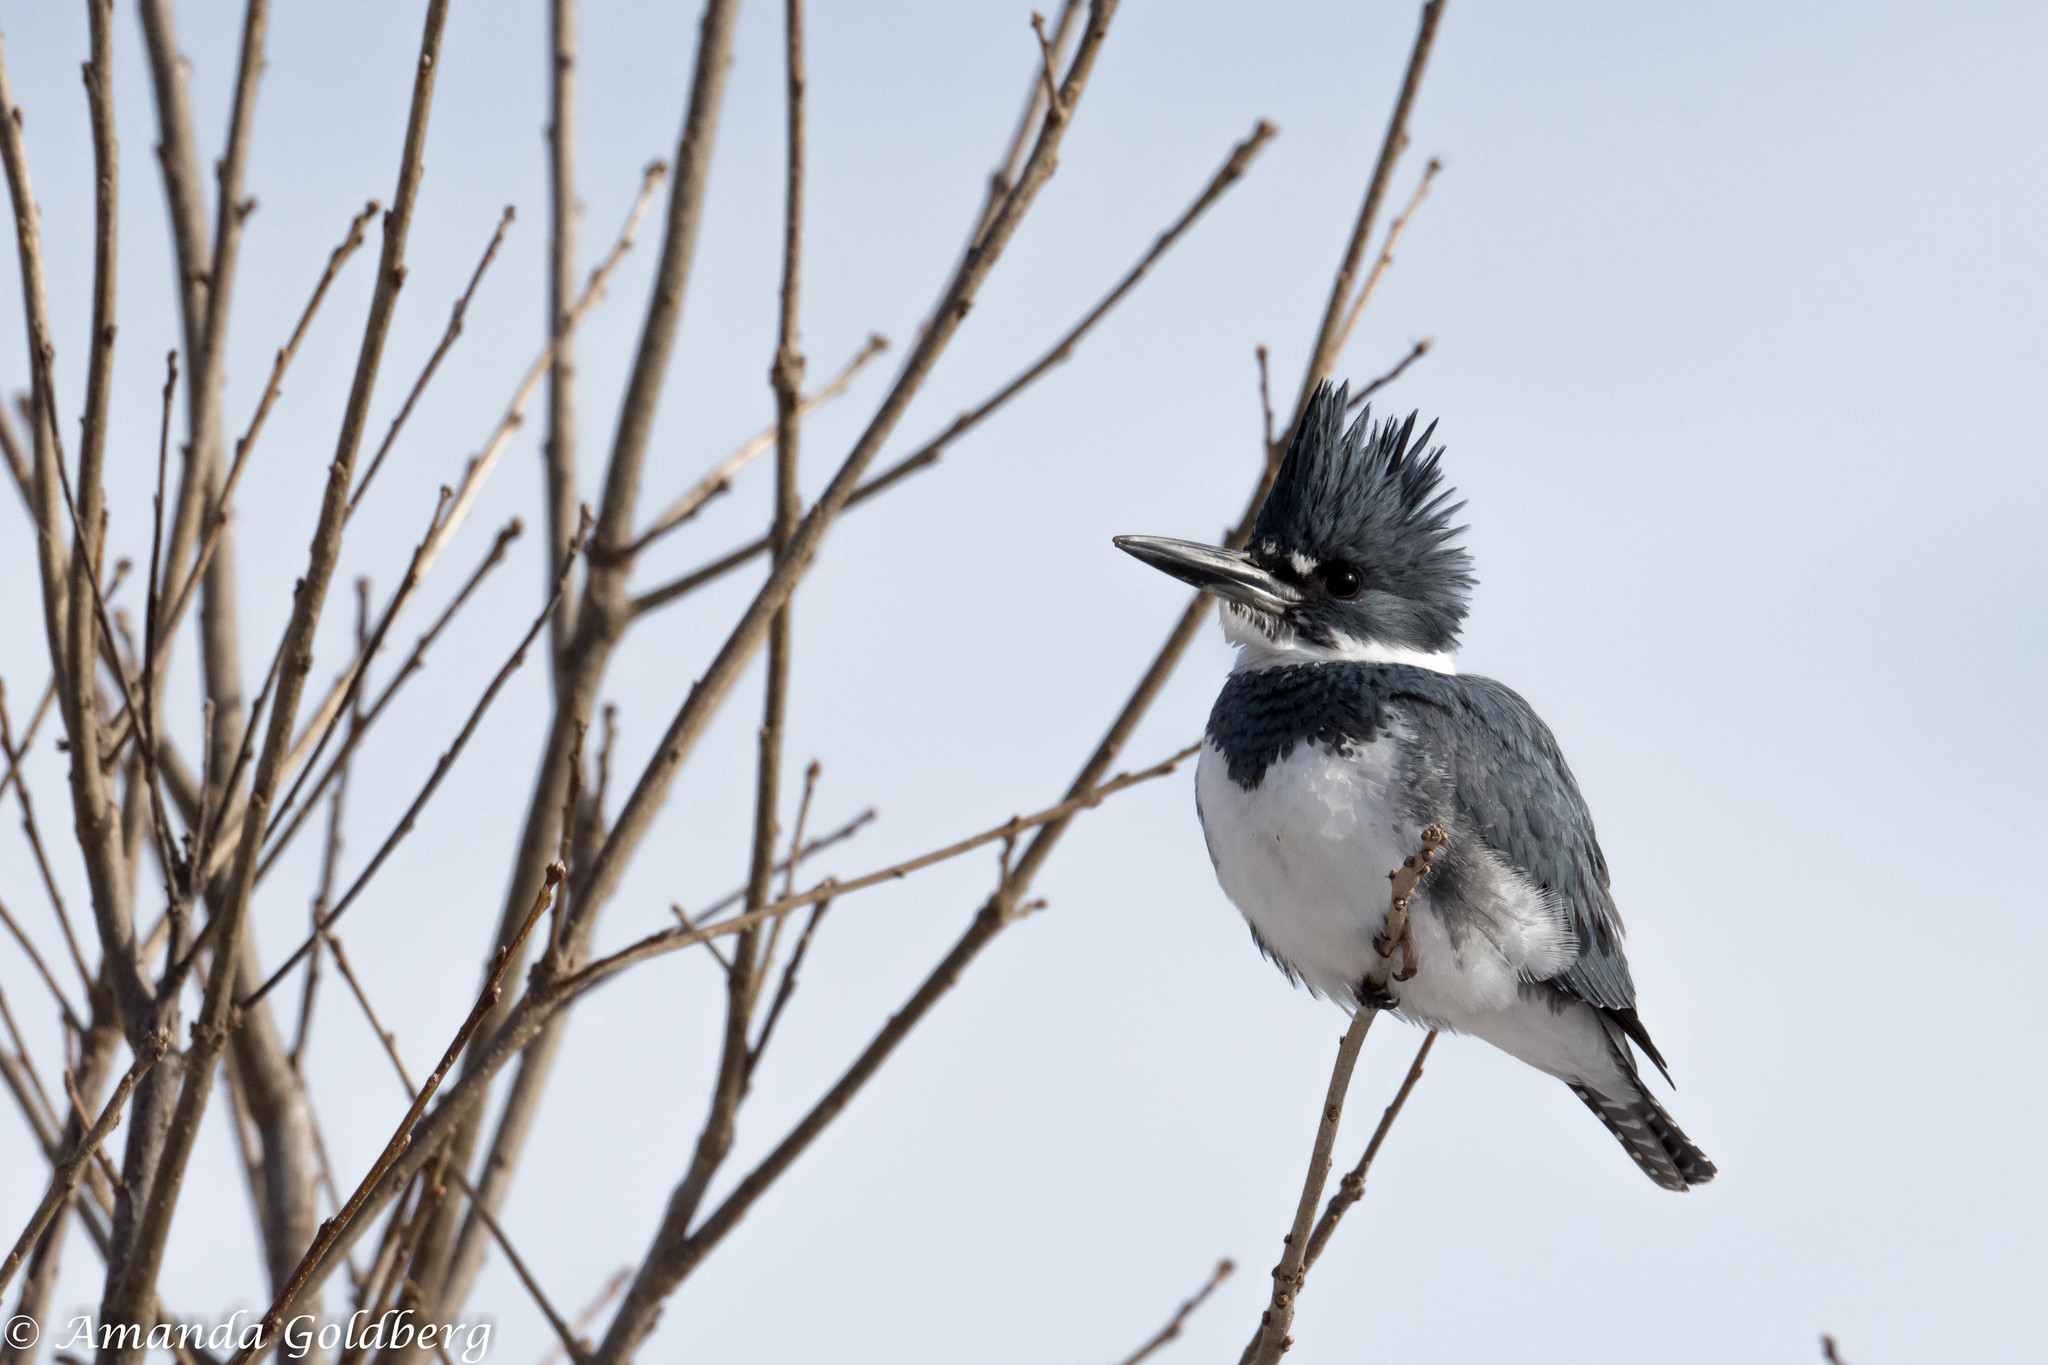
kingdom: Animalia
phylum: Chordata
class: Aves
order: Coraciiformes
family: Alcedinidae
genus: Megaceryle
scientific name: Megaceryle alcyon
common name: Belted kingfisher
